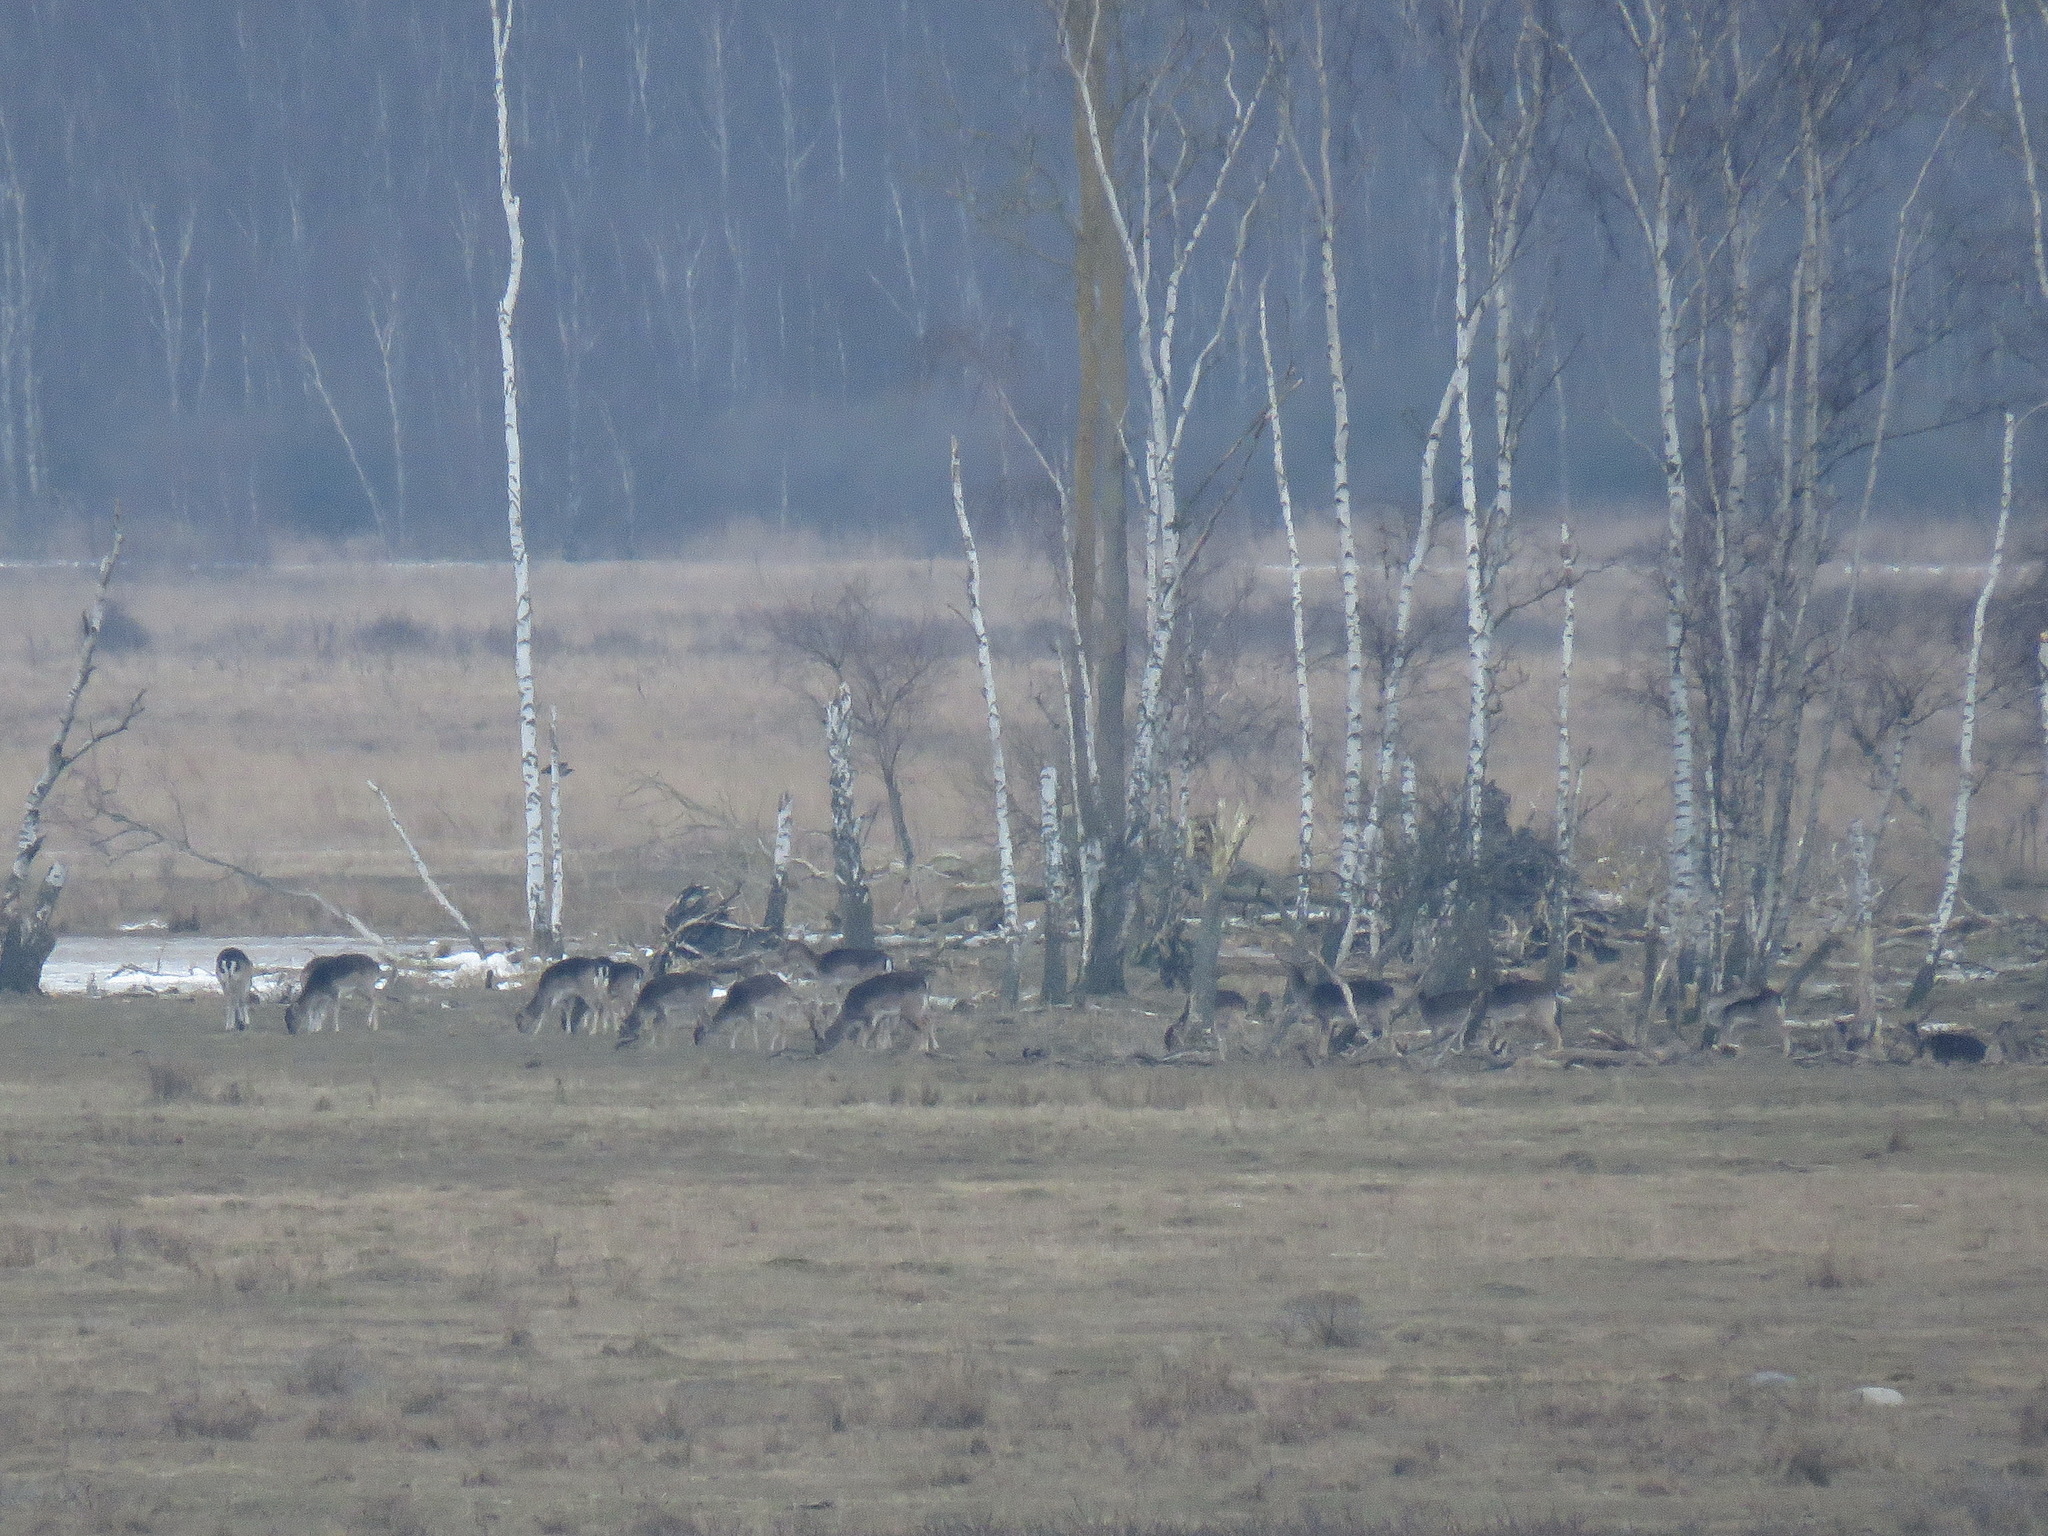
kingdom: Animalia
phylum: Chordata
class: Mammalia
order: Artiodactyla
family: Cervidae
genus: Dama
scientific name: Dama dama
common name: Fallow deer
